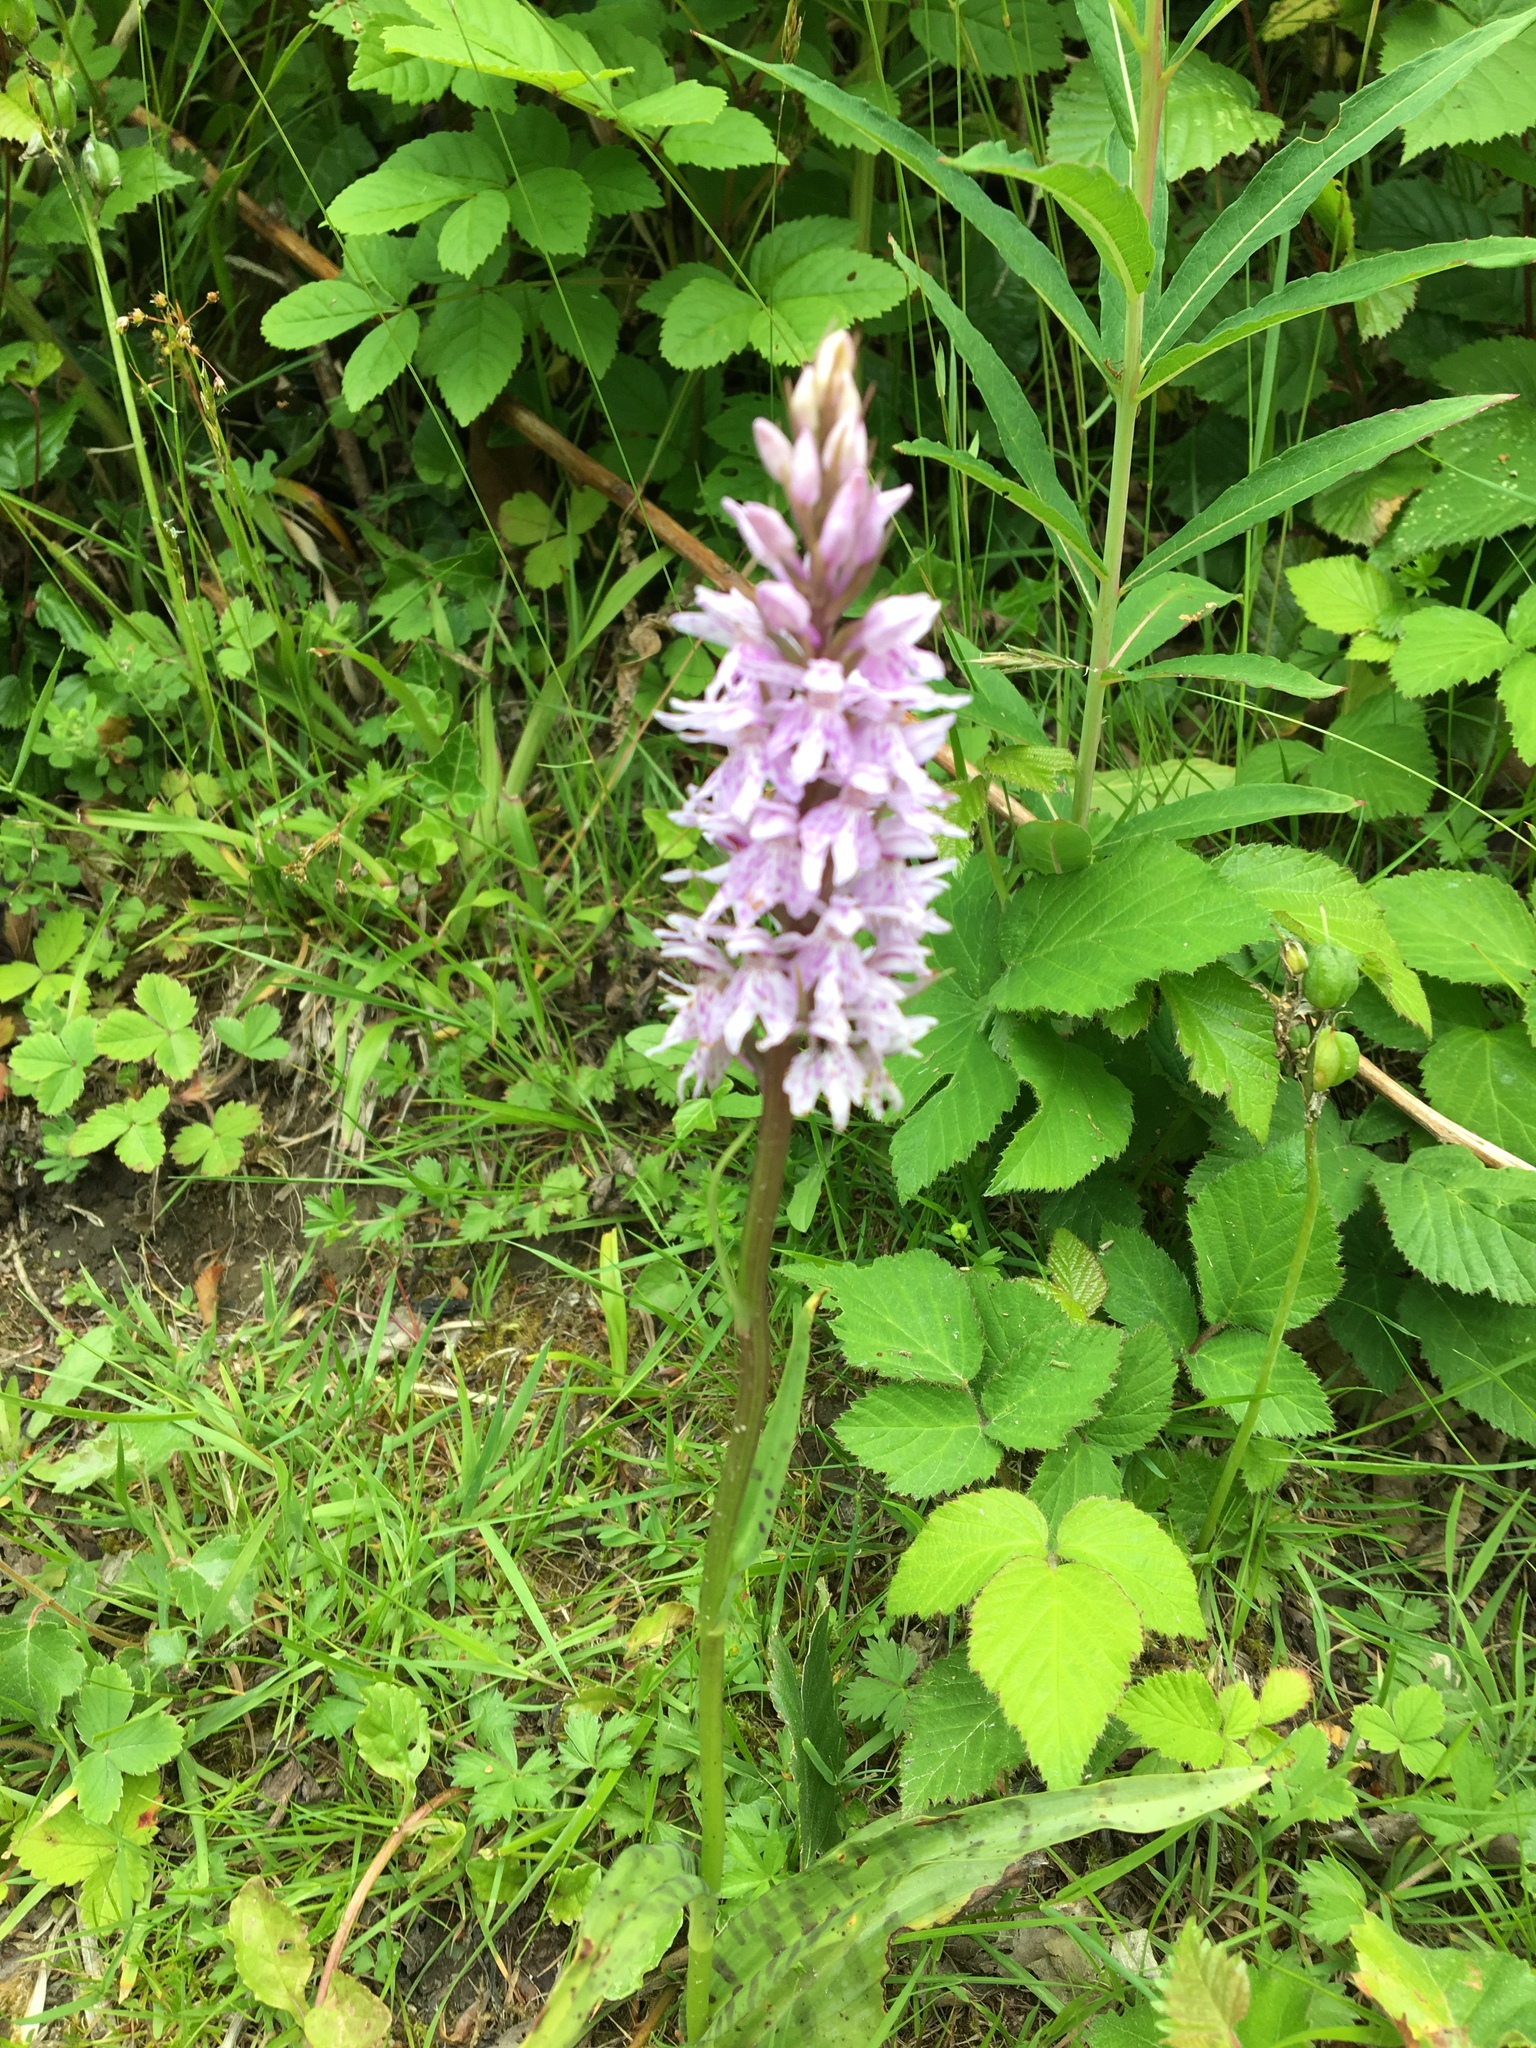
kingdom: Plantae
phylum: Tracheophyta
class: Liliopsida
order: Asparagales
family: Orchidaceae
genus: Dactylorhiza
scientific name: Dactylorhiza maculata
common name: Heath spotted-orchid
